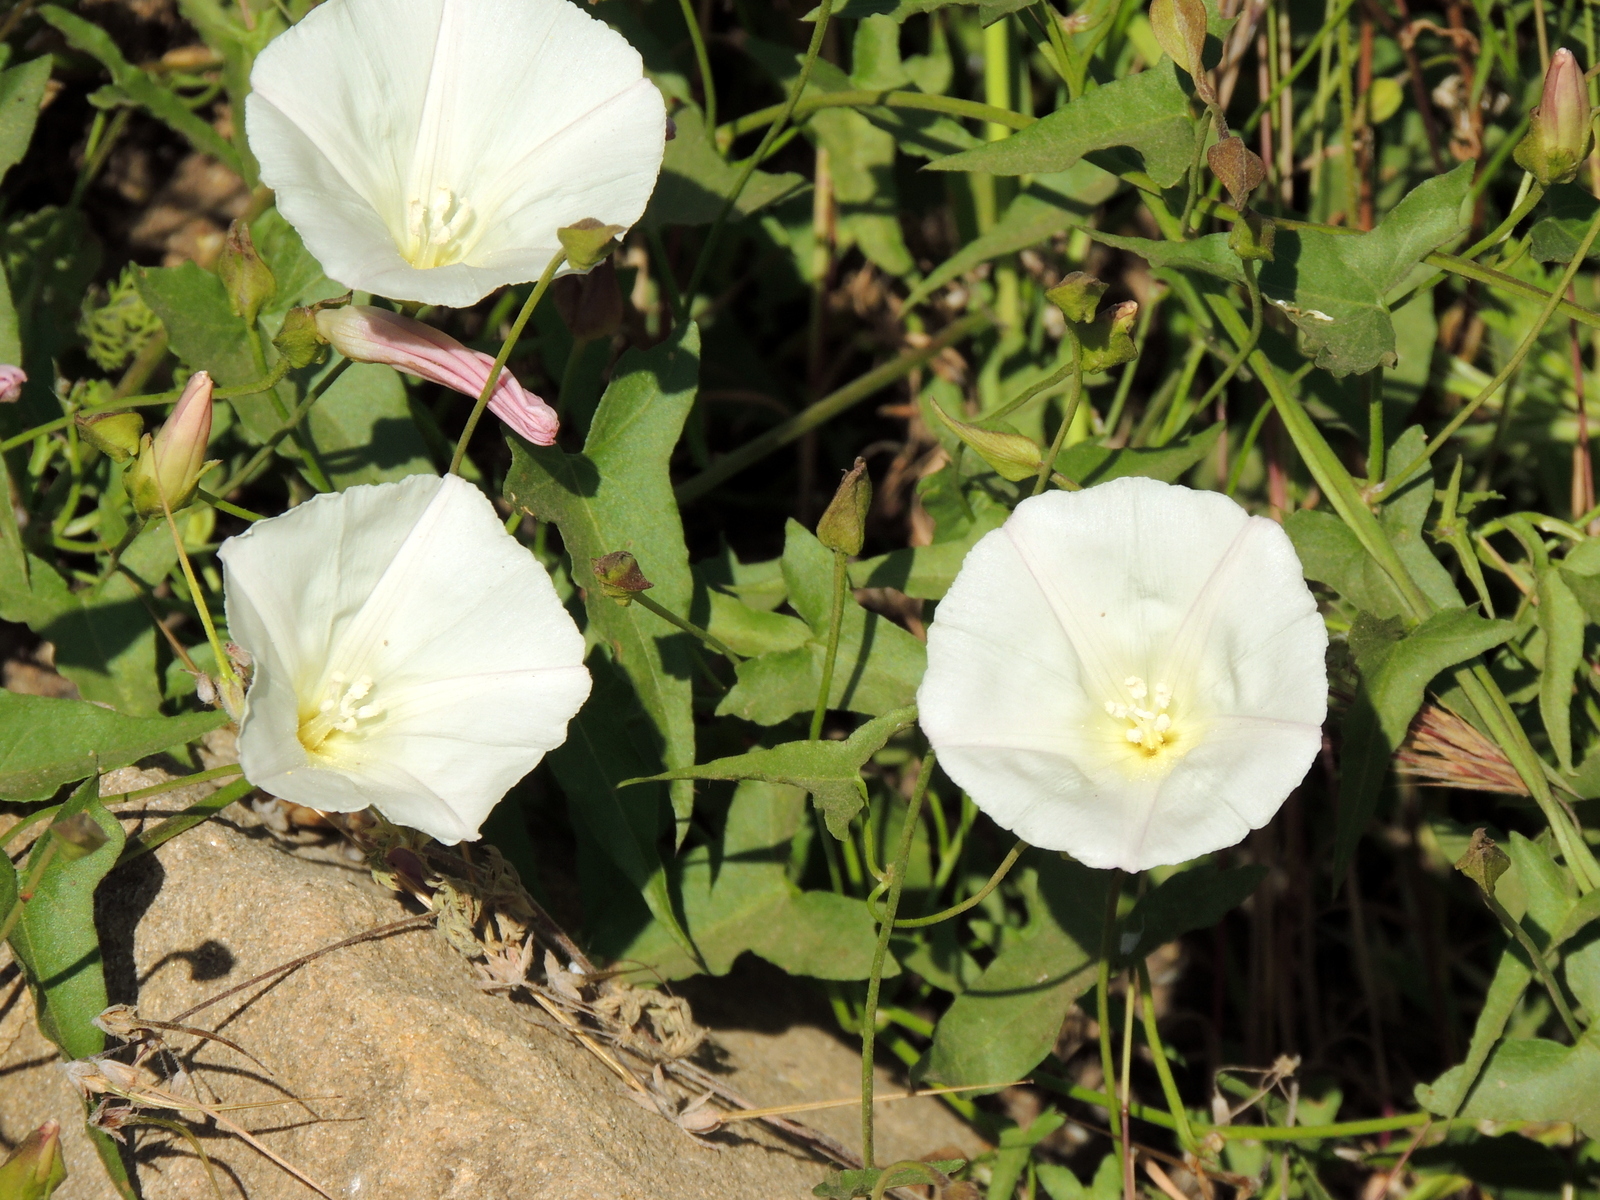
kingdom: Plantae
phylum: Tracheophyta
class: Magnoliopsida
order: Solanales
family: Convolvulaceae
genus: Calystegia
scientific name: Calystegia macrostegia
